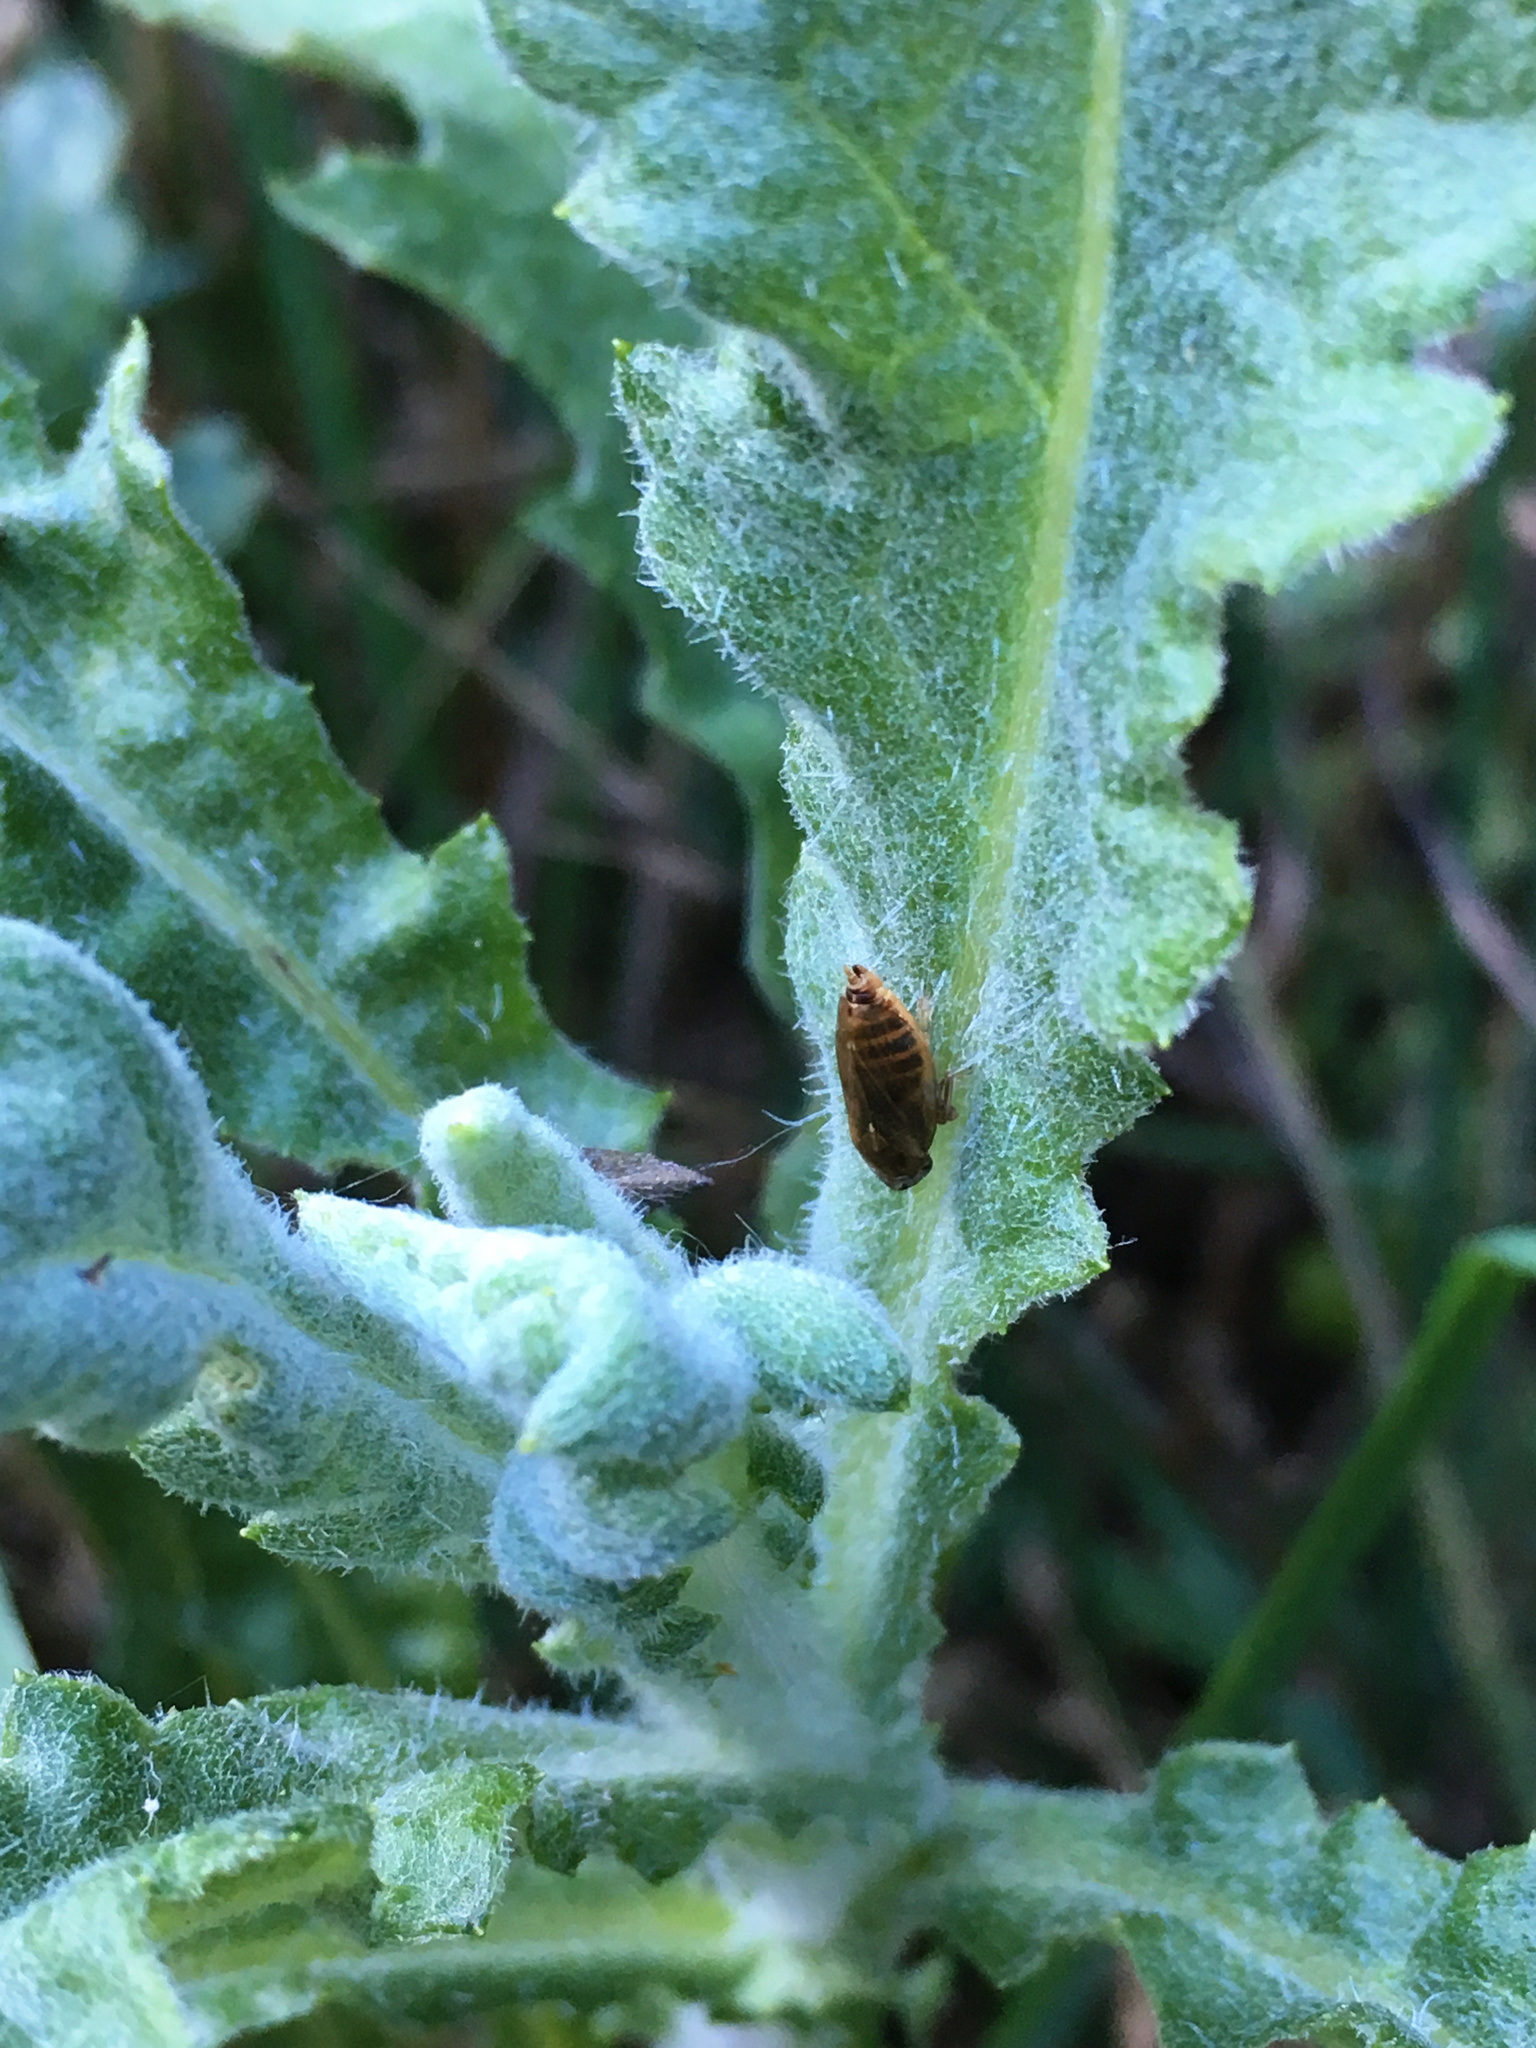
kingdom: Animalia
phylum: Arthropoda
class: Insecta
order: Hemiptera
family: Aphrophoridae
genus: Philaenus
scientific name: Philaenus spumarius
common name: Meadow spittlebug
